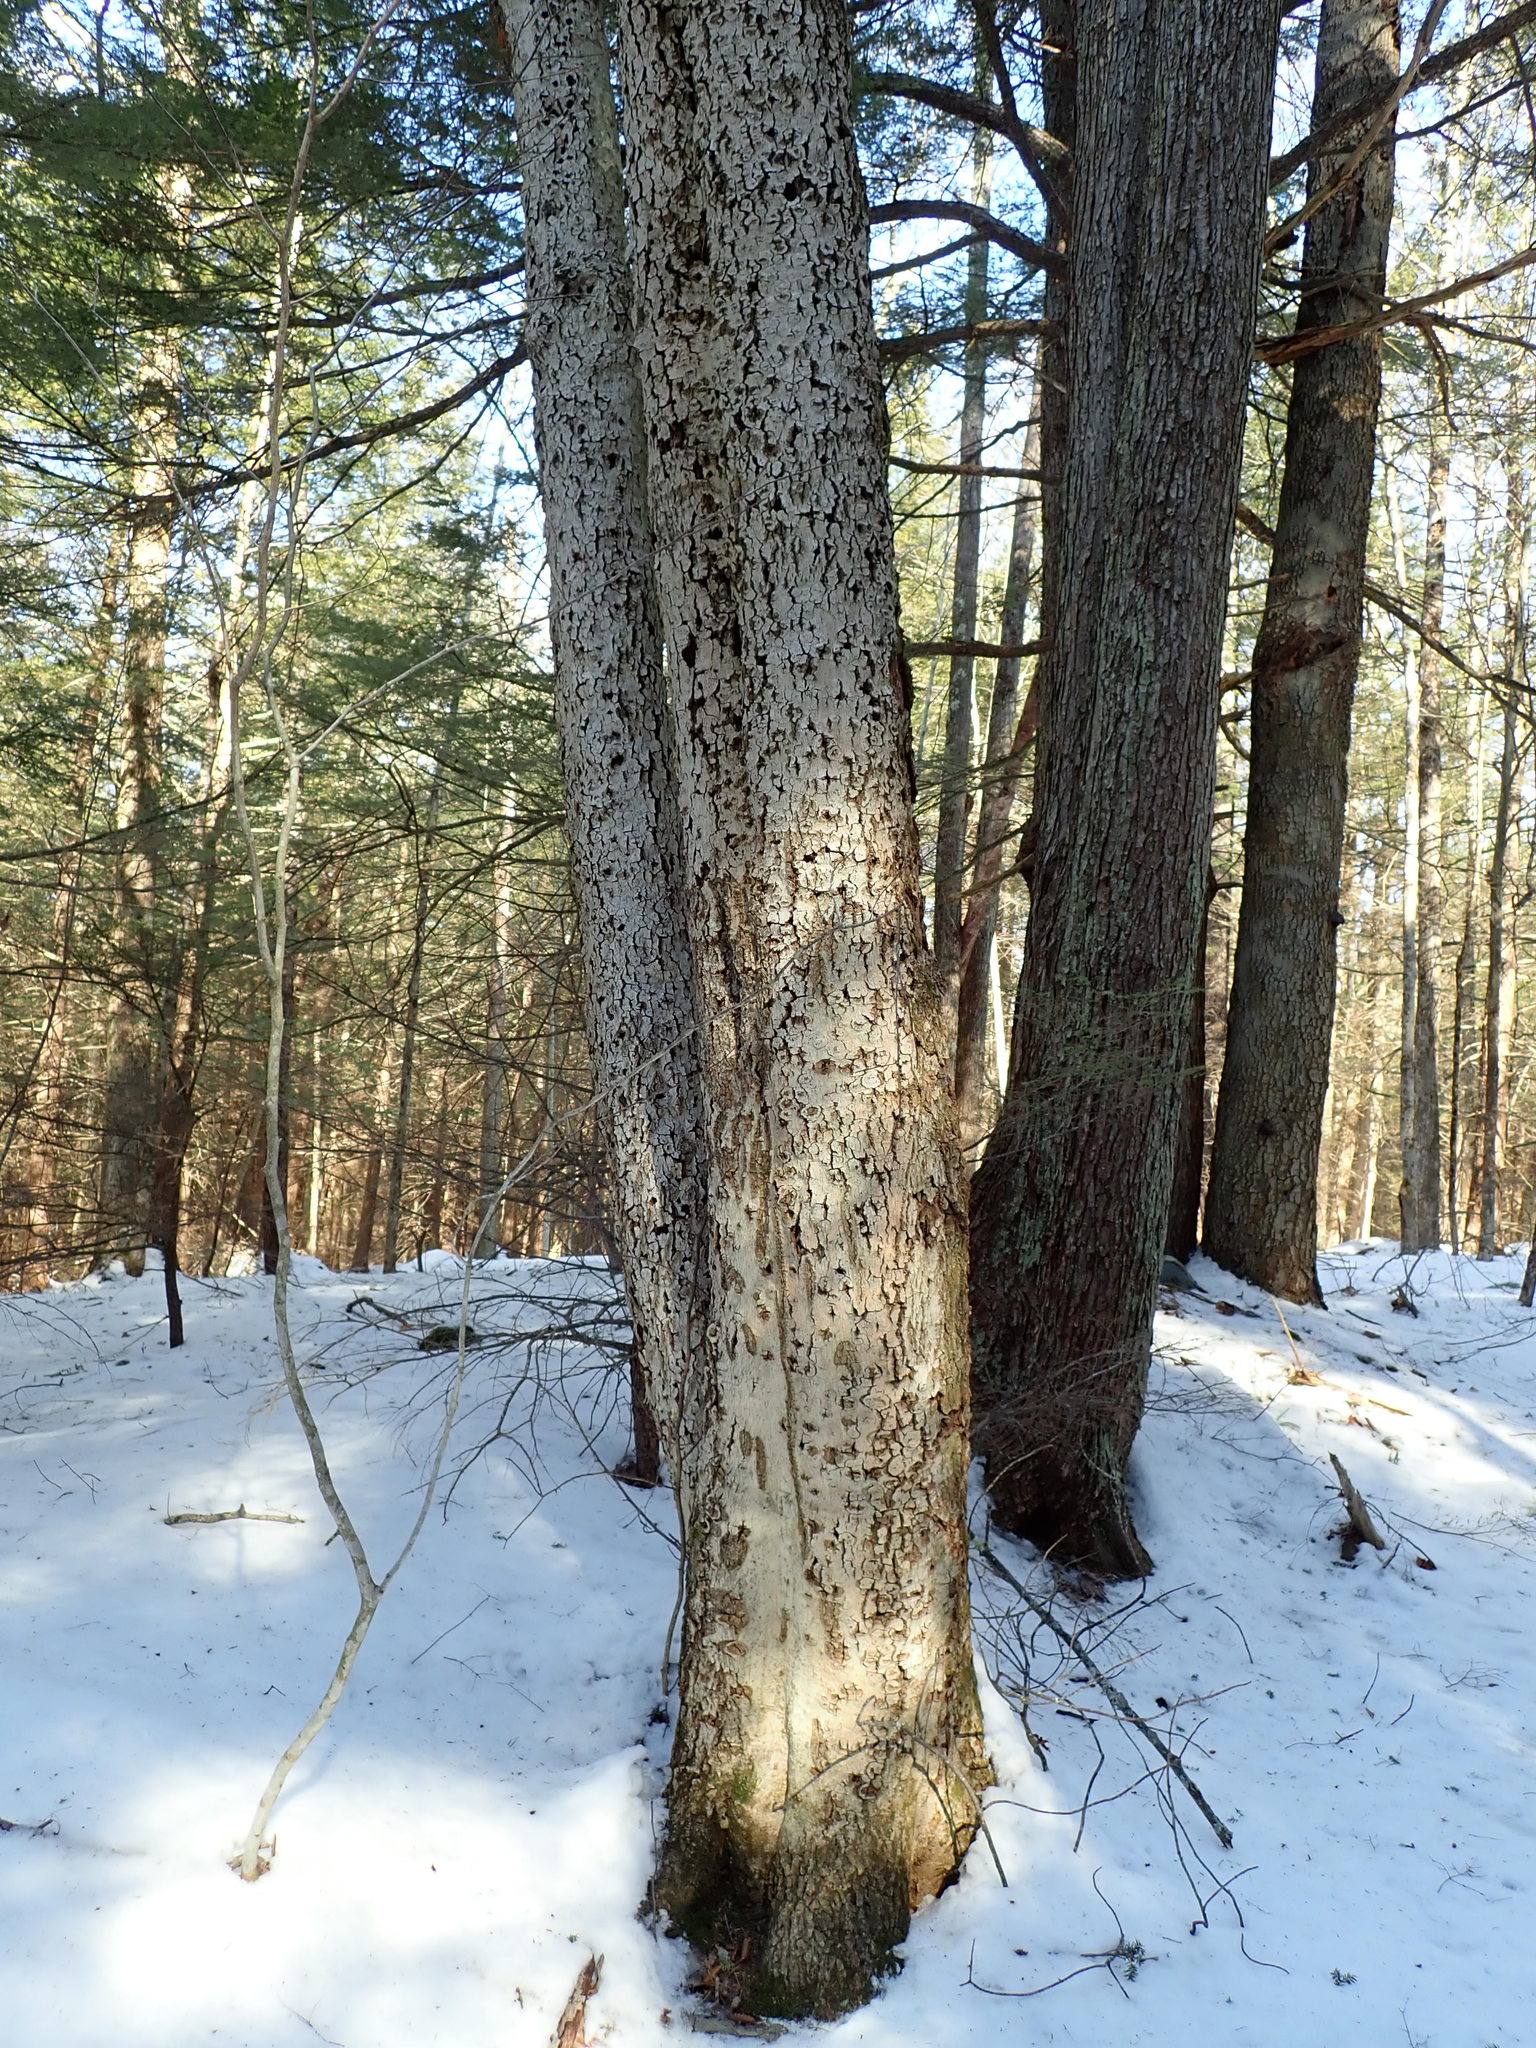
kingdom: Fungi
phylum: Ascomycota
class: Sordariomycetes
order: Hypocreales
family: Nectriaceae
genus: Neonectria
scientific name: Neonectria faginata
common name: Beech bark canker
